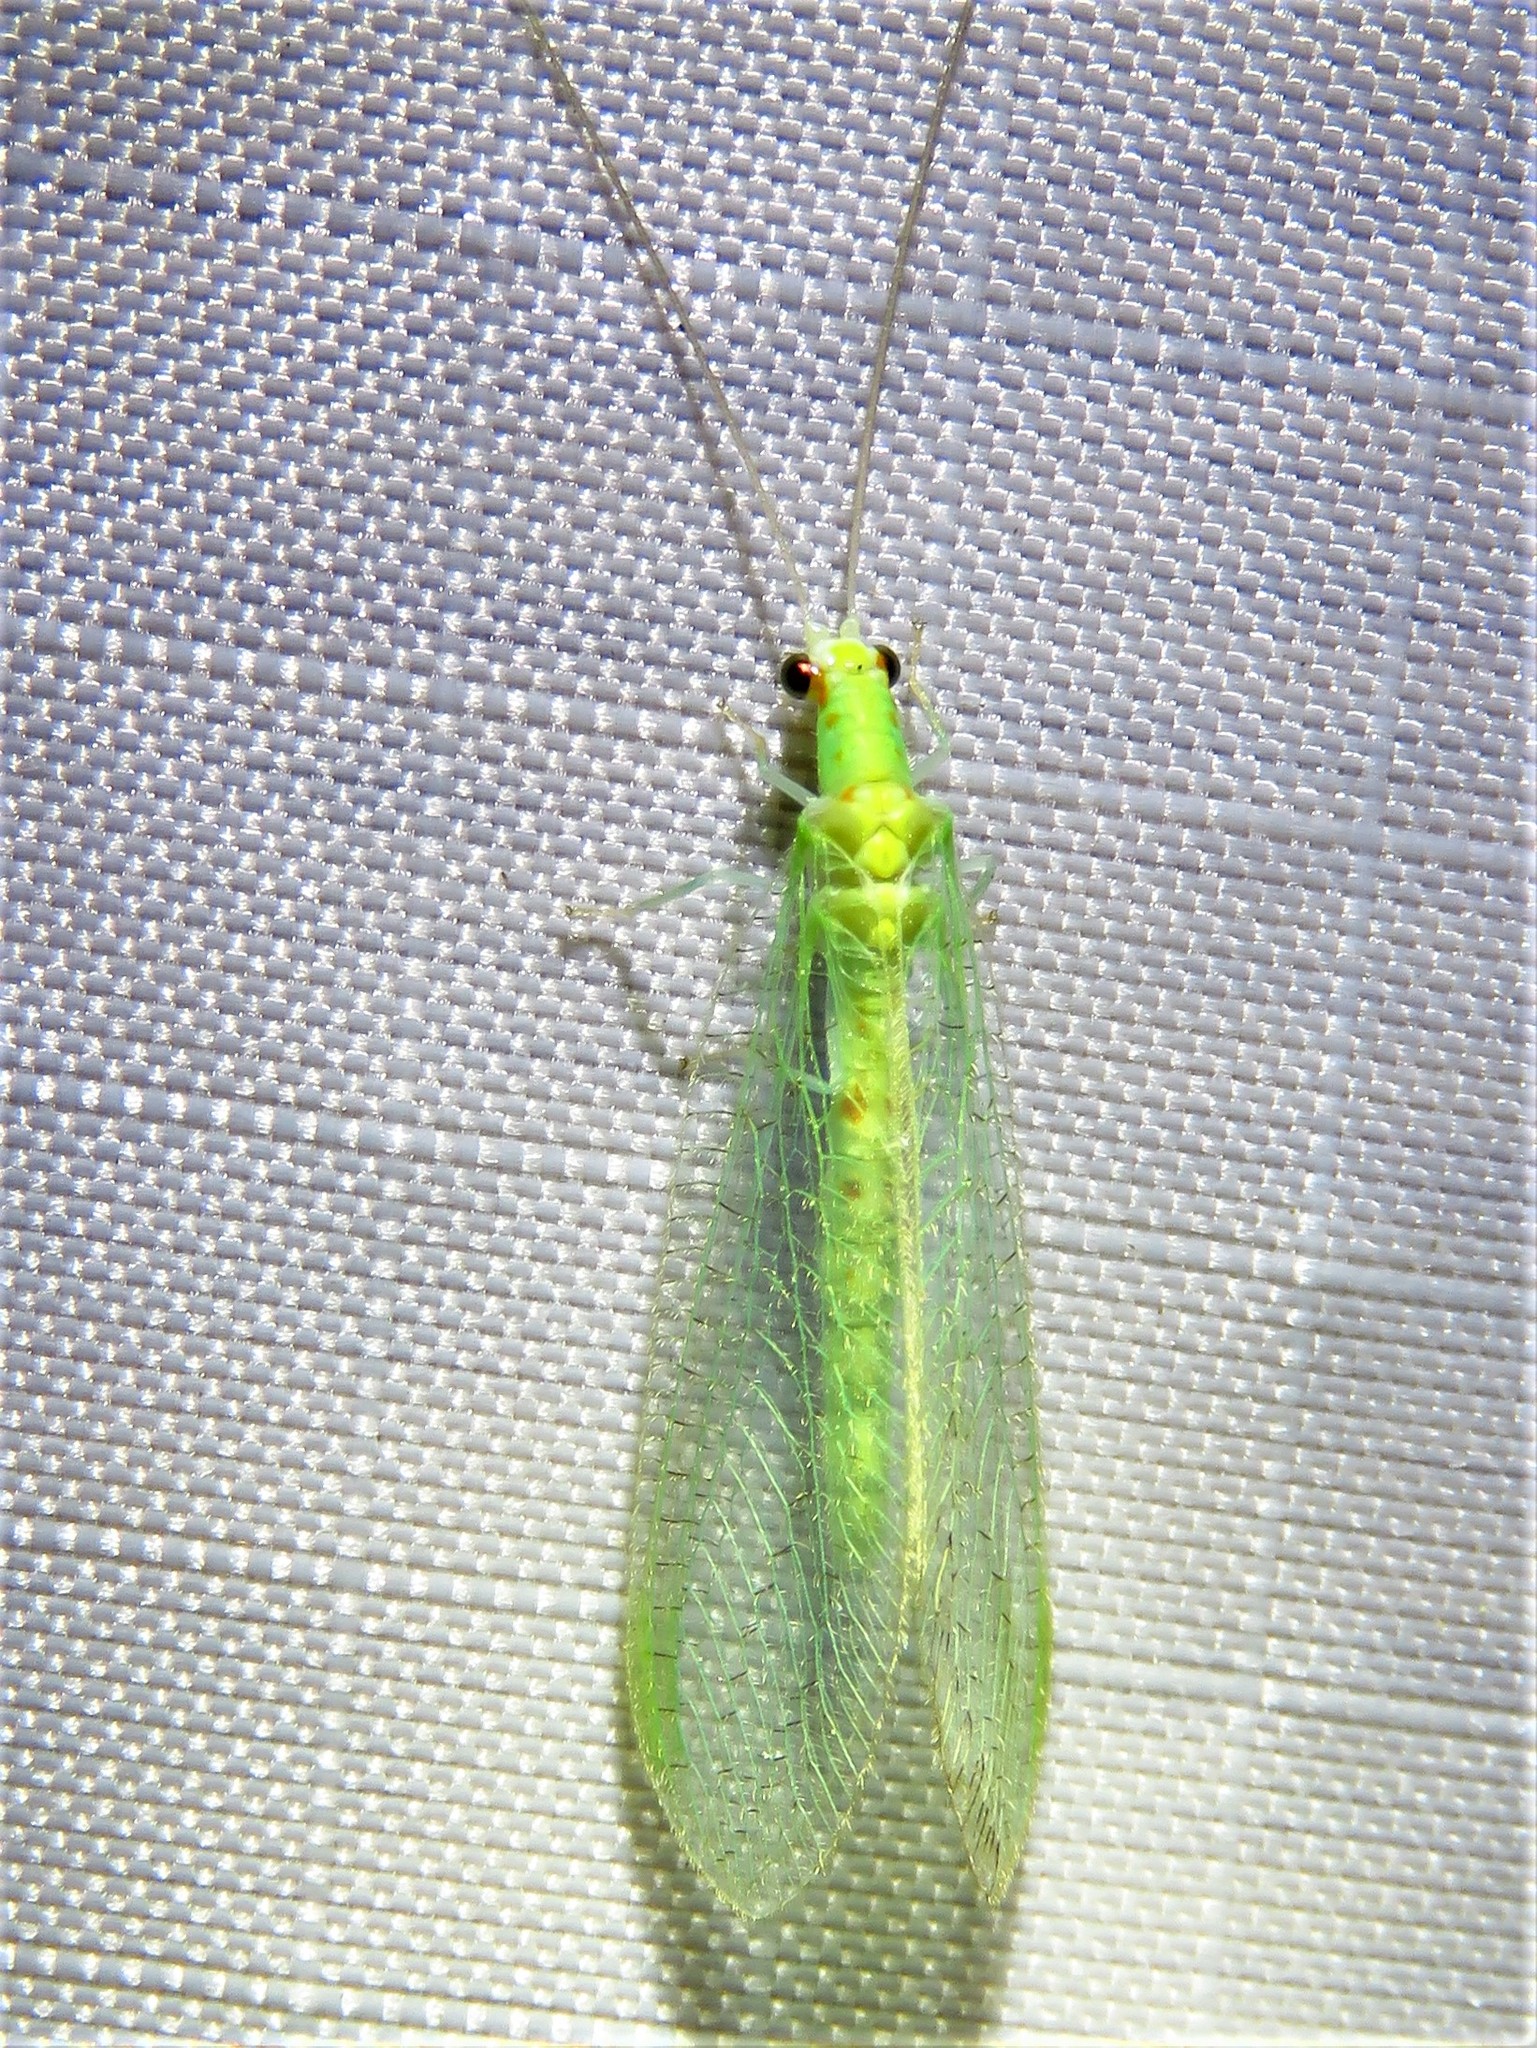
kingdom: Animalia
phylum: Arthropoda
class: Insecta
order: Neuroptera
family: Chrysopidae
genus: Chrysopa
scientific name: Chrysopa quadripunctata
